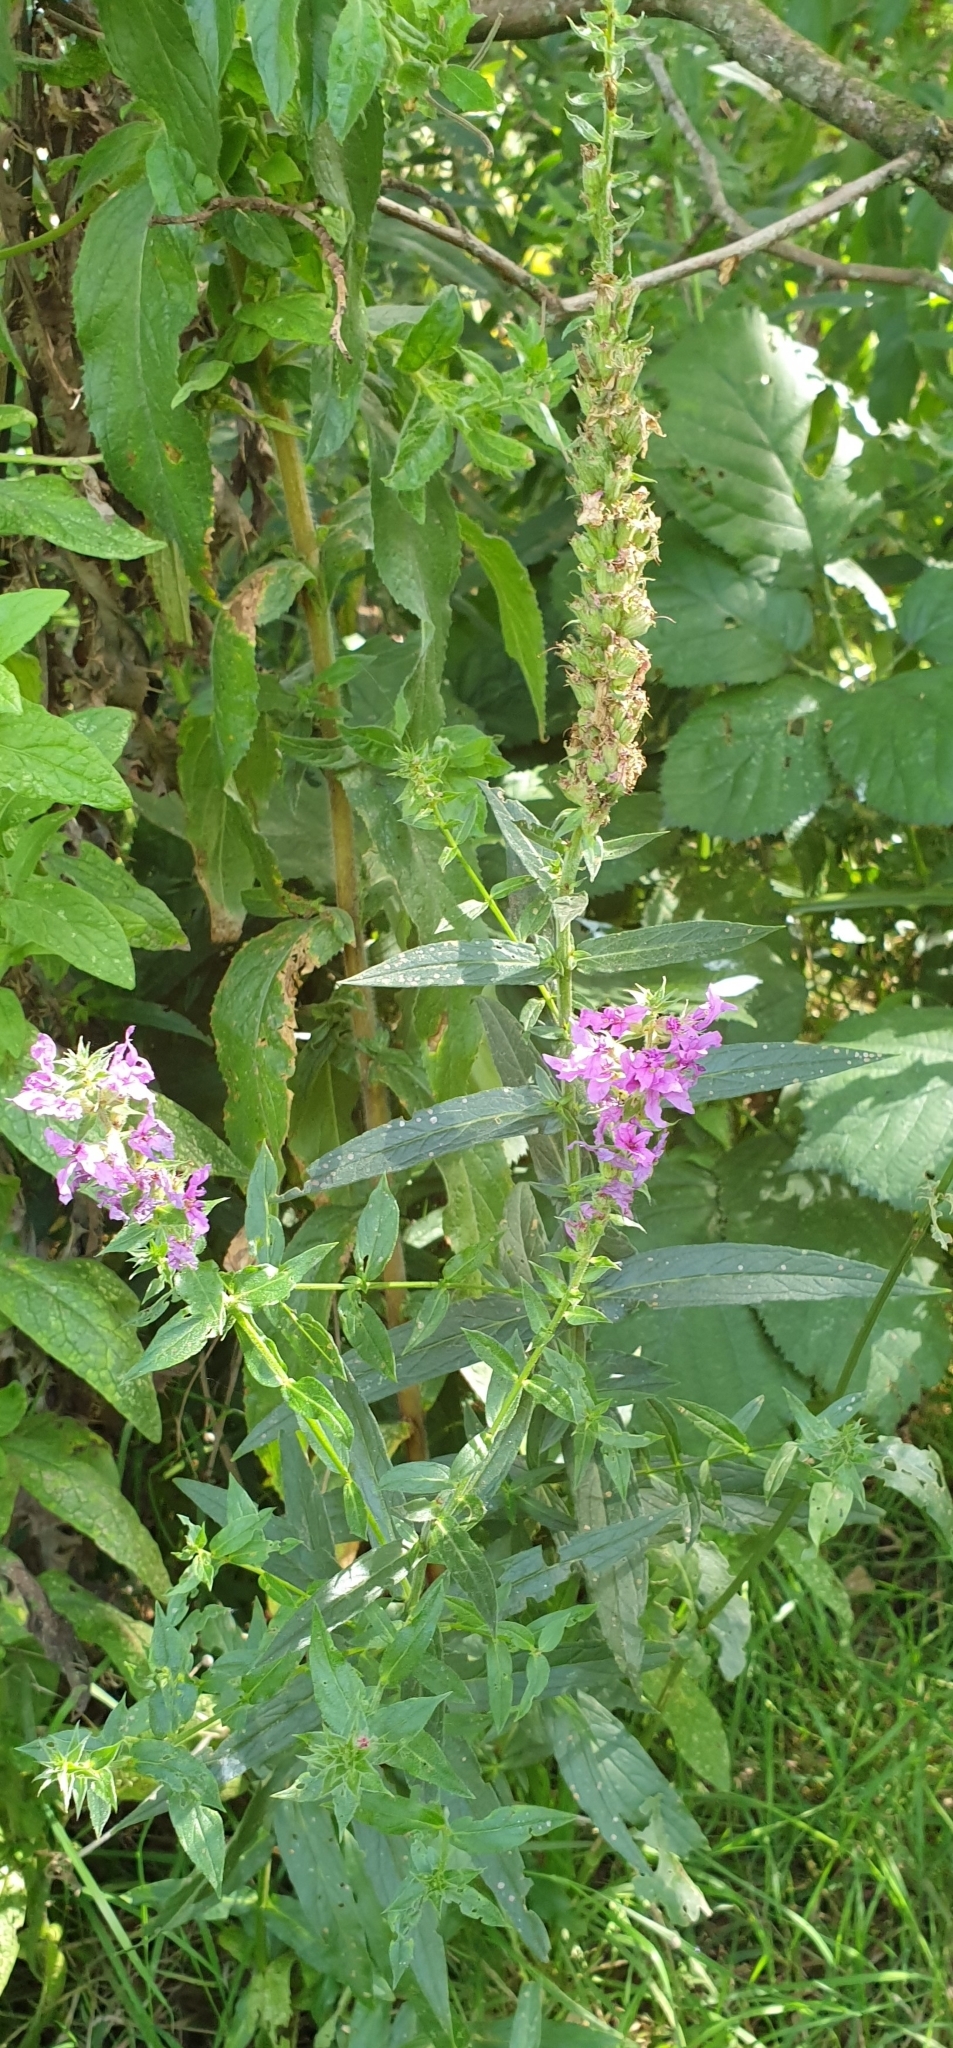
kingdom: Plantae
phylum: Tracheophyta
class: Magnoliopsida
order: Myrtales
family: Lythraceae
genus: Lythrum
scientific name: Lythrum salicaria
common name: Purple loosestrife
